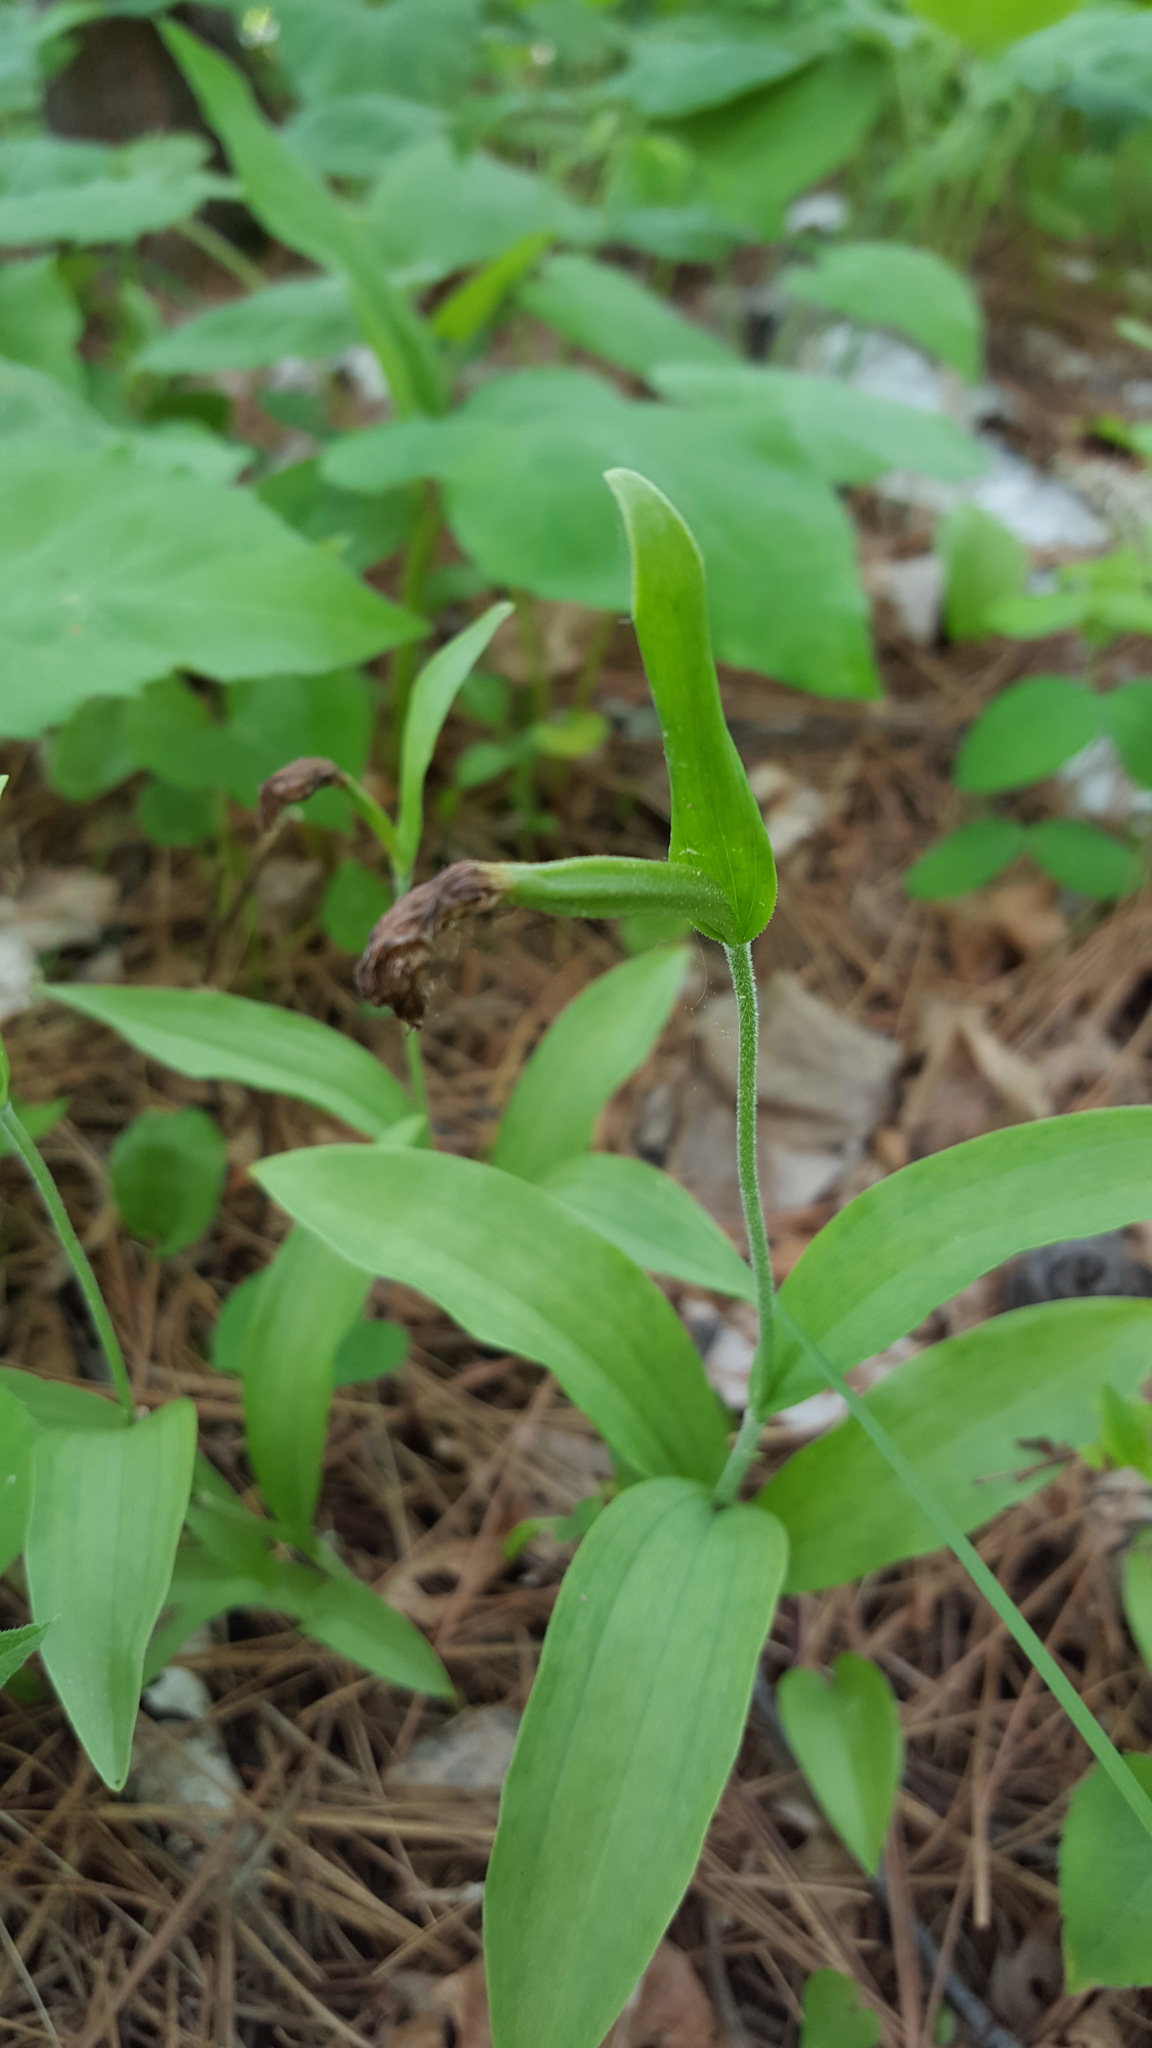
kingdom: Plantae
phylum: Tracheophyta
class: Liliopsida
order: Asparagales
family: Orchidaceae
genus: Cypripedium
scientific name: Cypripedium arietinum
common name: Ram's-head
